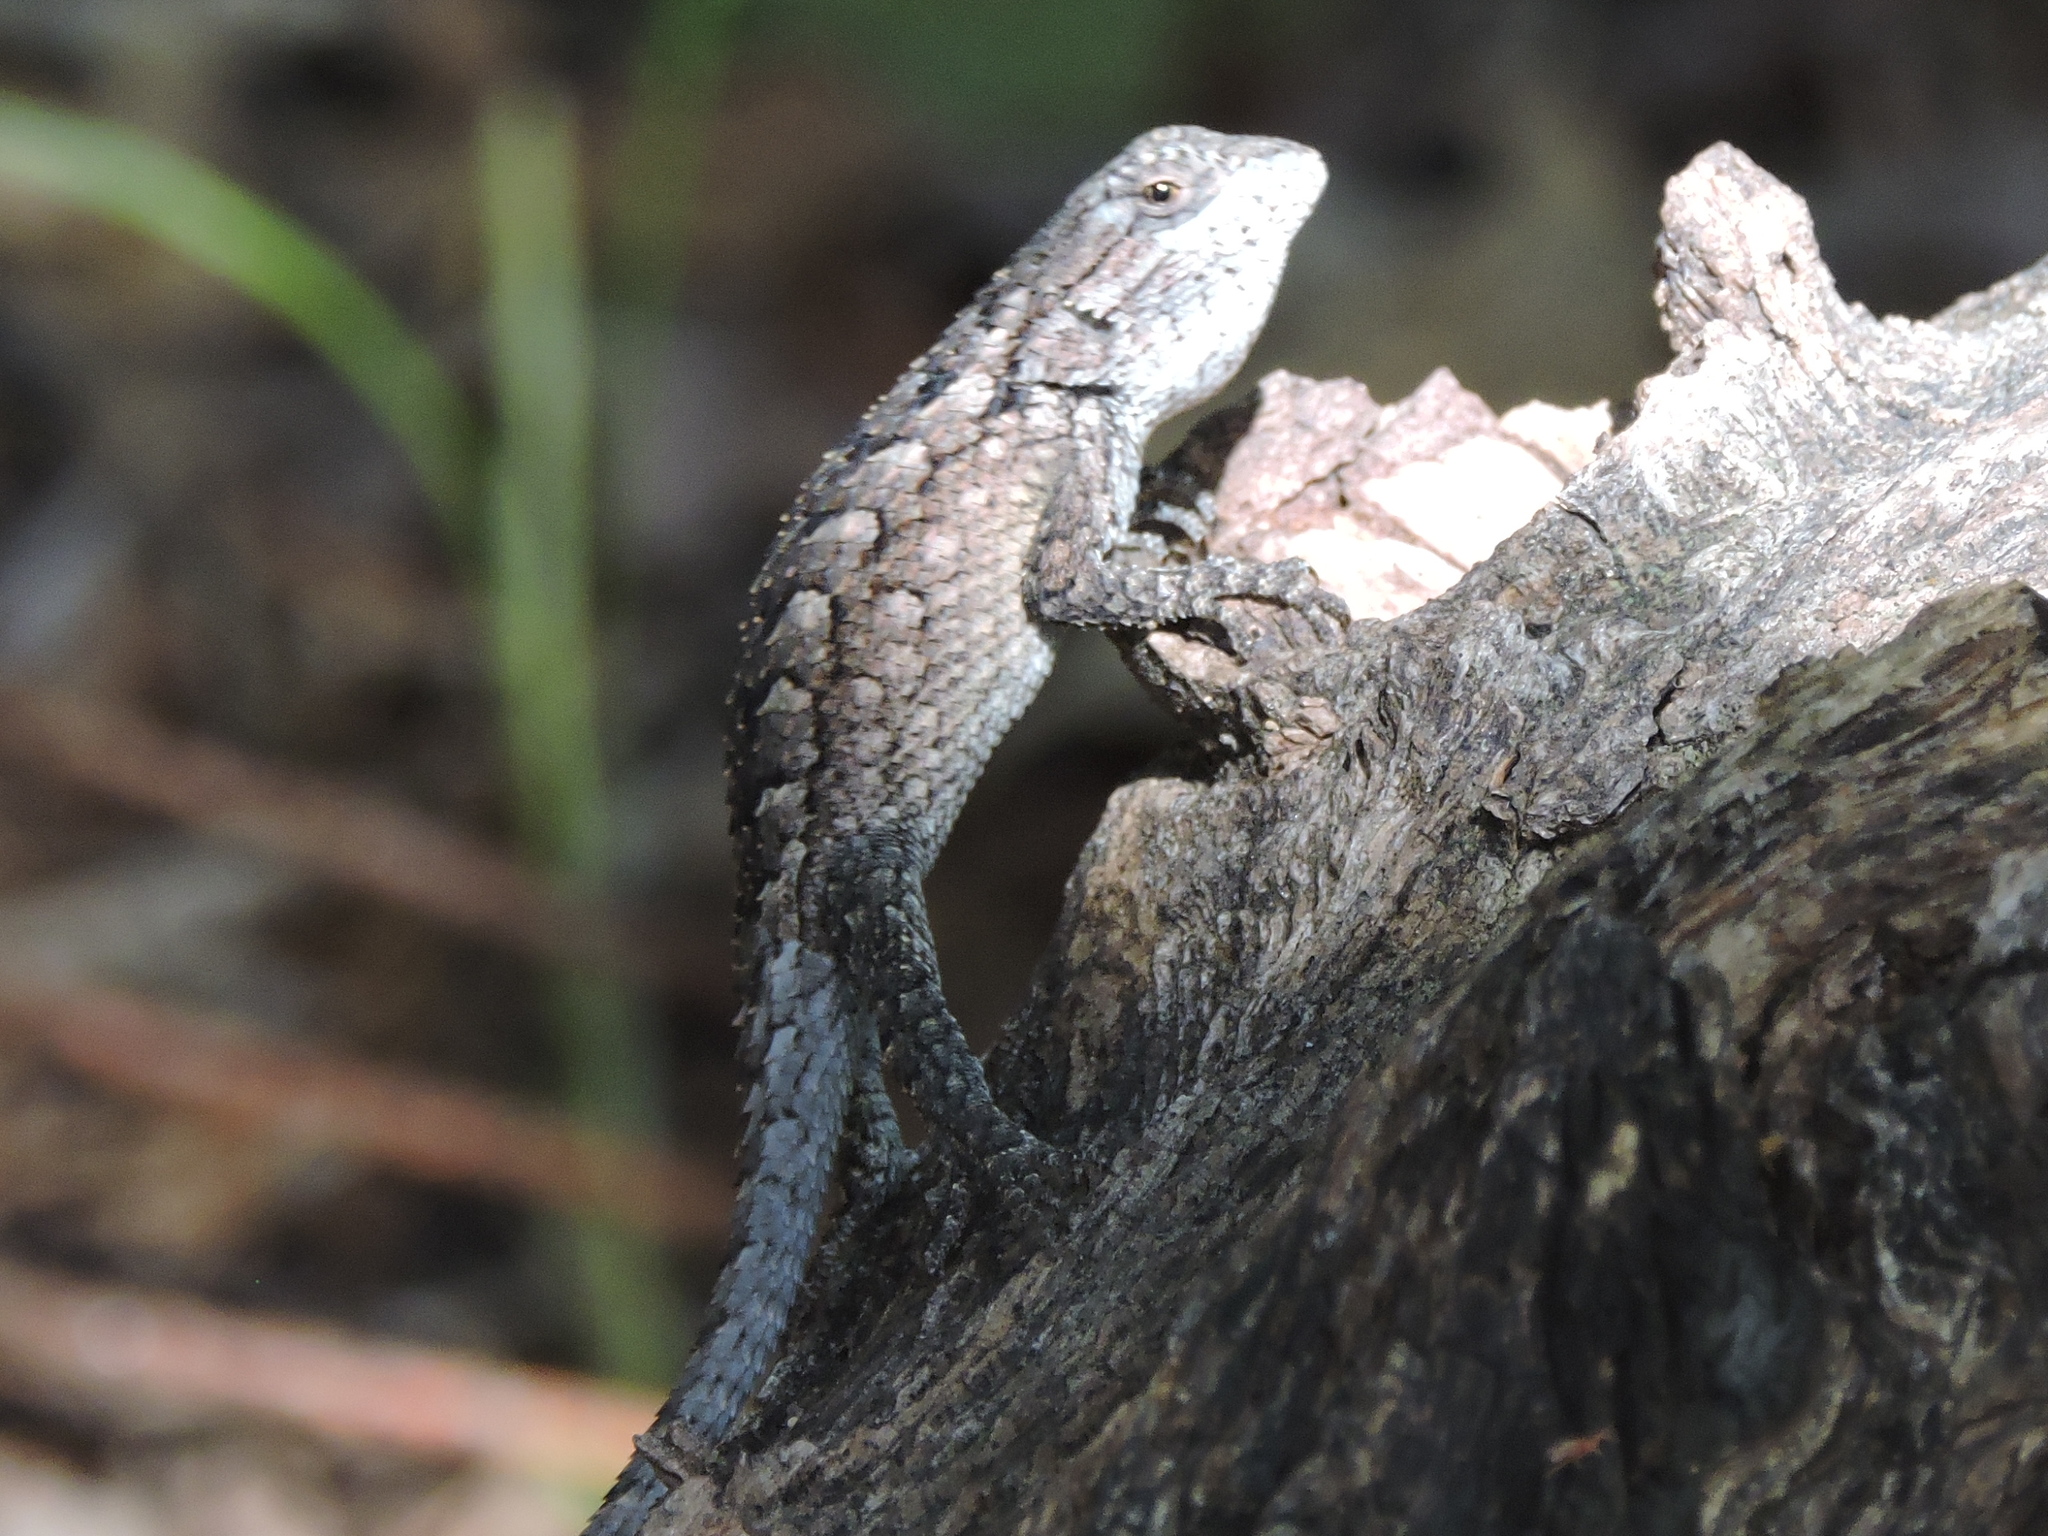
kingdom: Animalia
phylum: Chordata
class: Squamata
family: Phrynosomatidae
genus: Sceloporus
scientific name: Sceloporus olivaceus
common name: Texas spiny lizard
